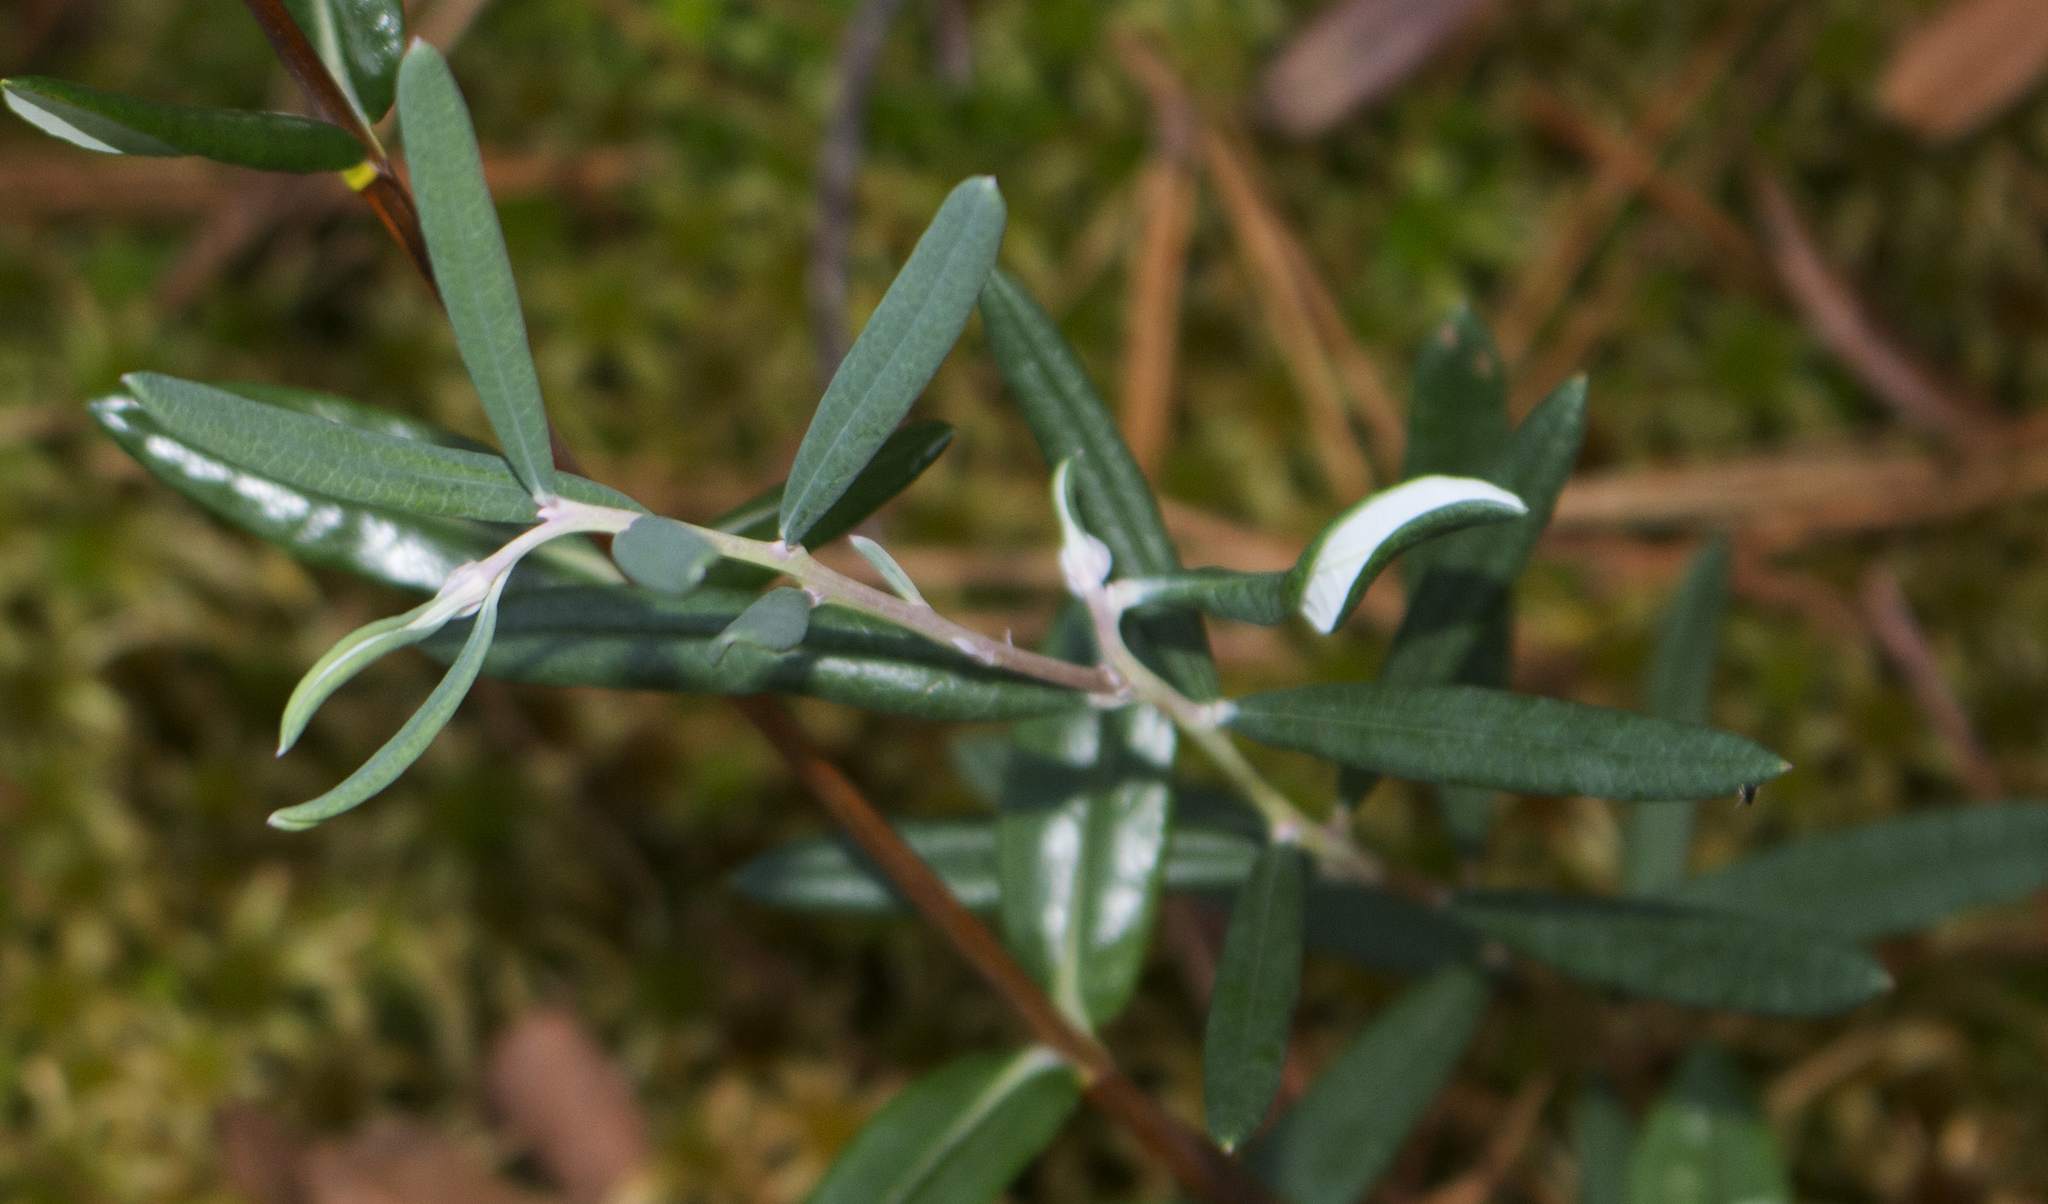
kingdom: Plantae
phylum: Tracheophyta
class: Magnoliopsida
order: Ericales
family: Ericaceae
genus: Andromeda
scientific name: Andromeda polifolia
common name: Bog-rosemary
